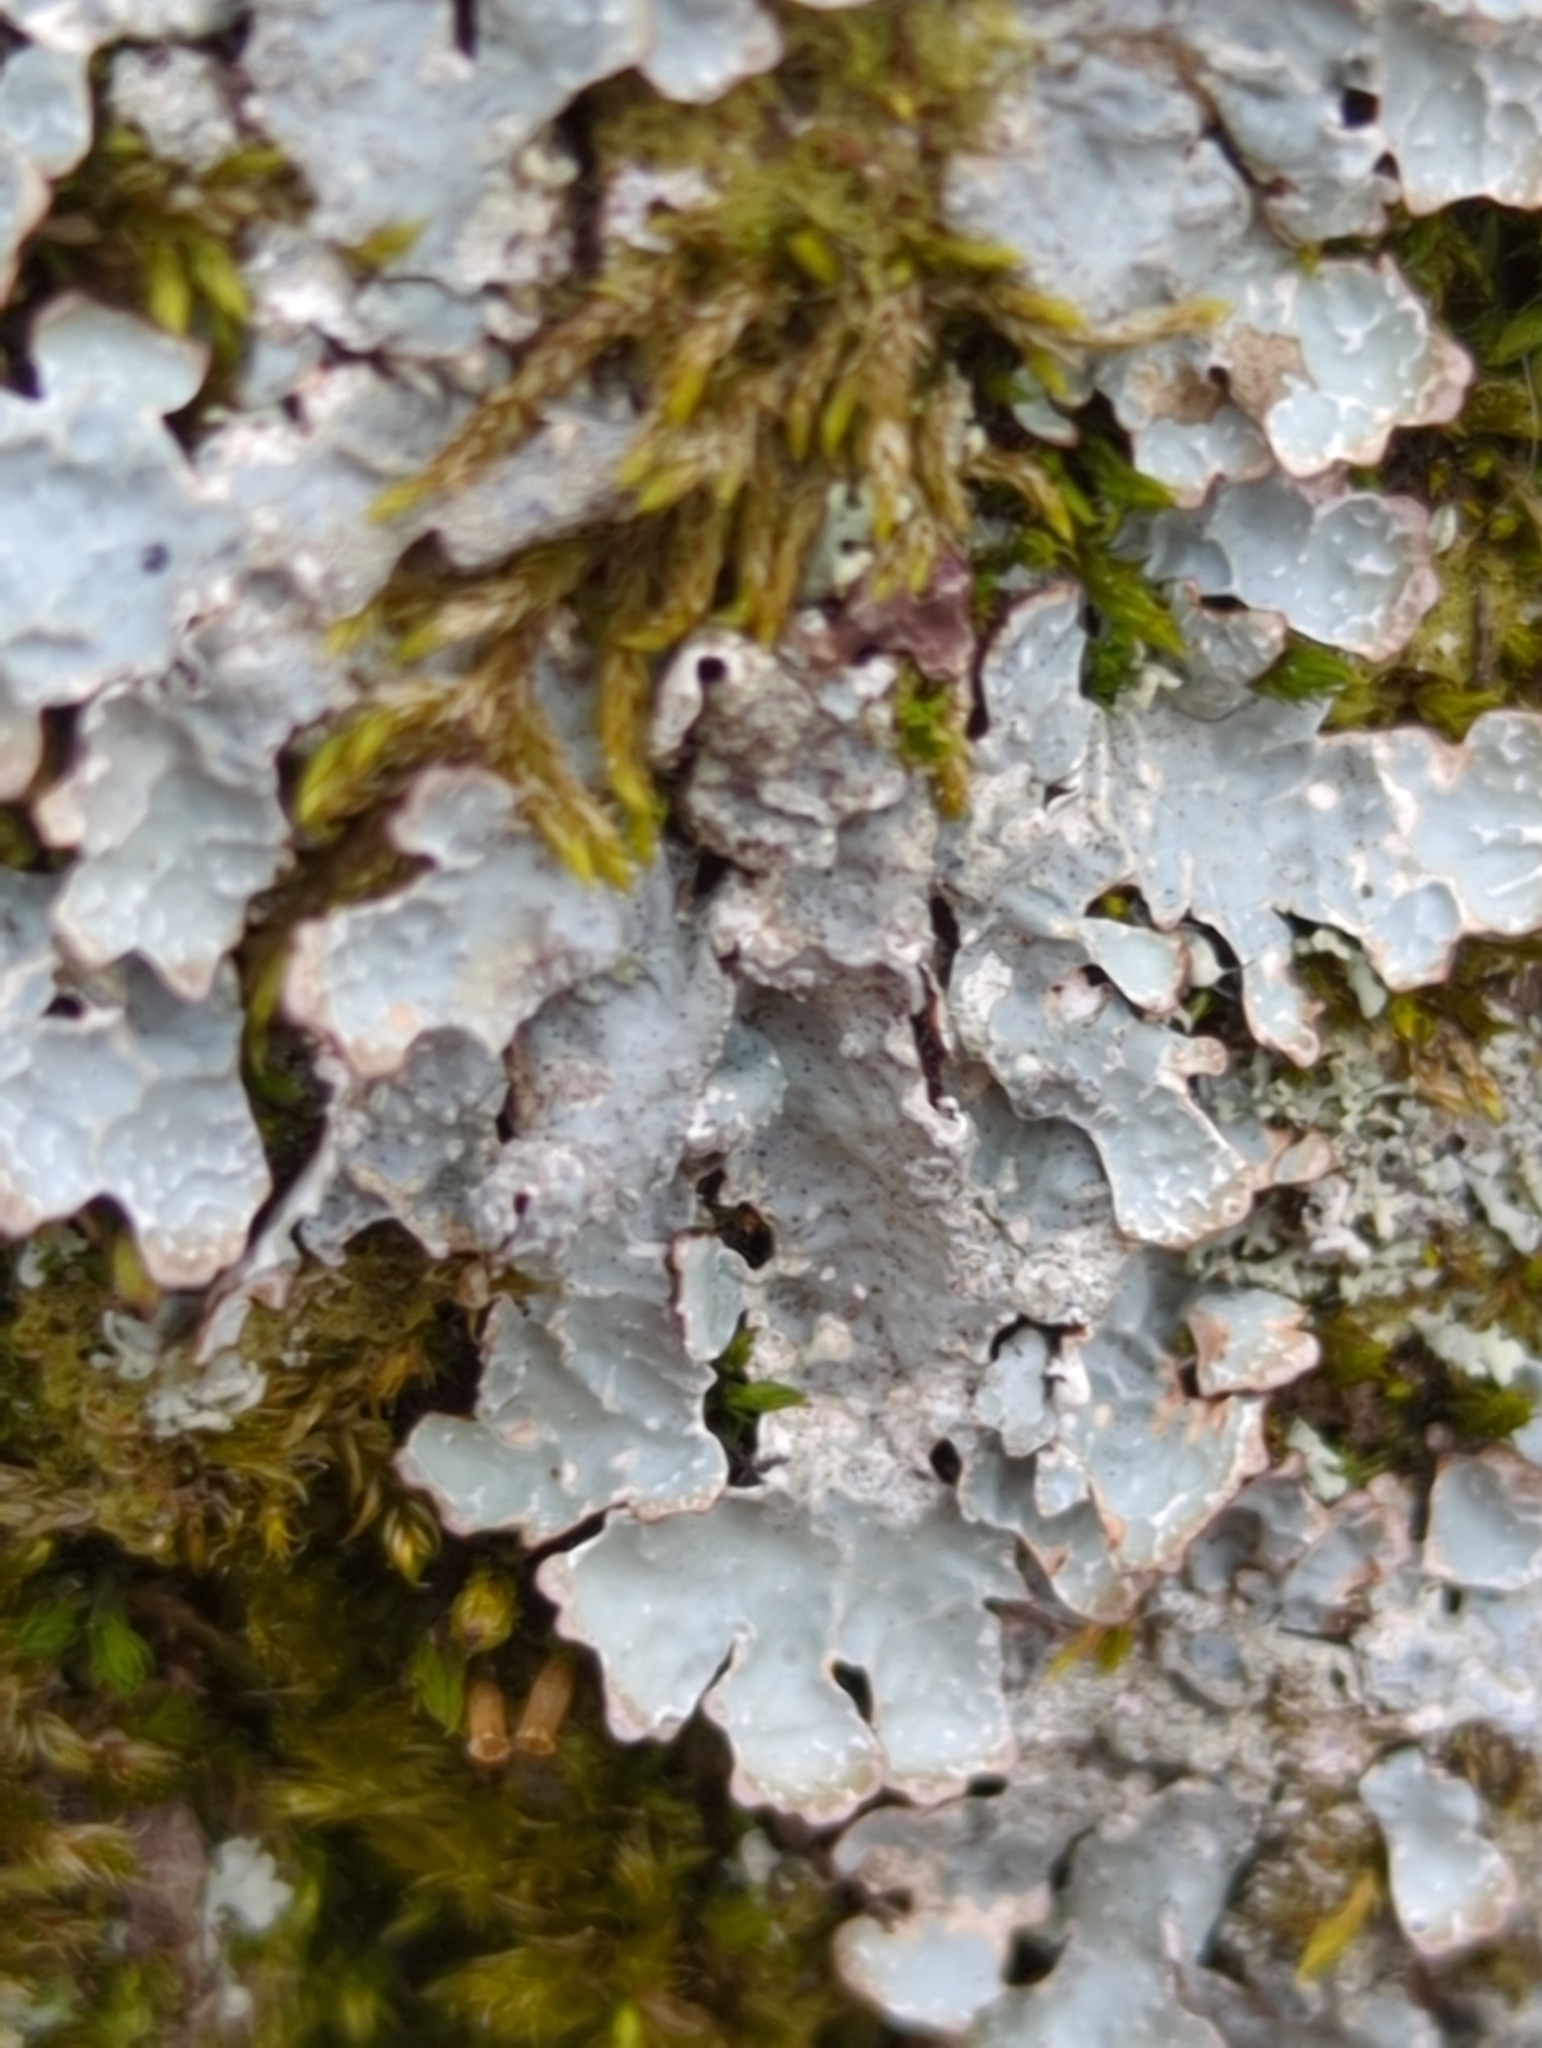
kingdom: Fungi
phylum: Ascomycota
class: Lecanoromycetes
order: Lecanorales
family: Parmeliaceae
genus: Parmelia
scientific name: Parmelia sulcata
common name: Netted shield lichen
